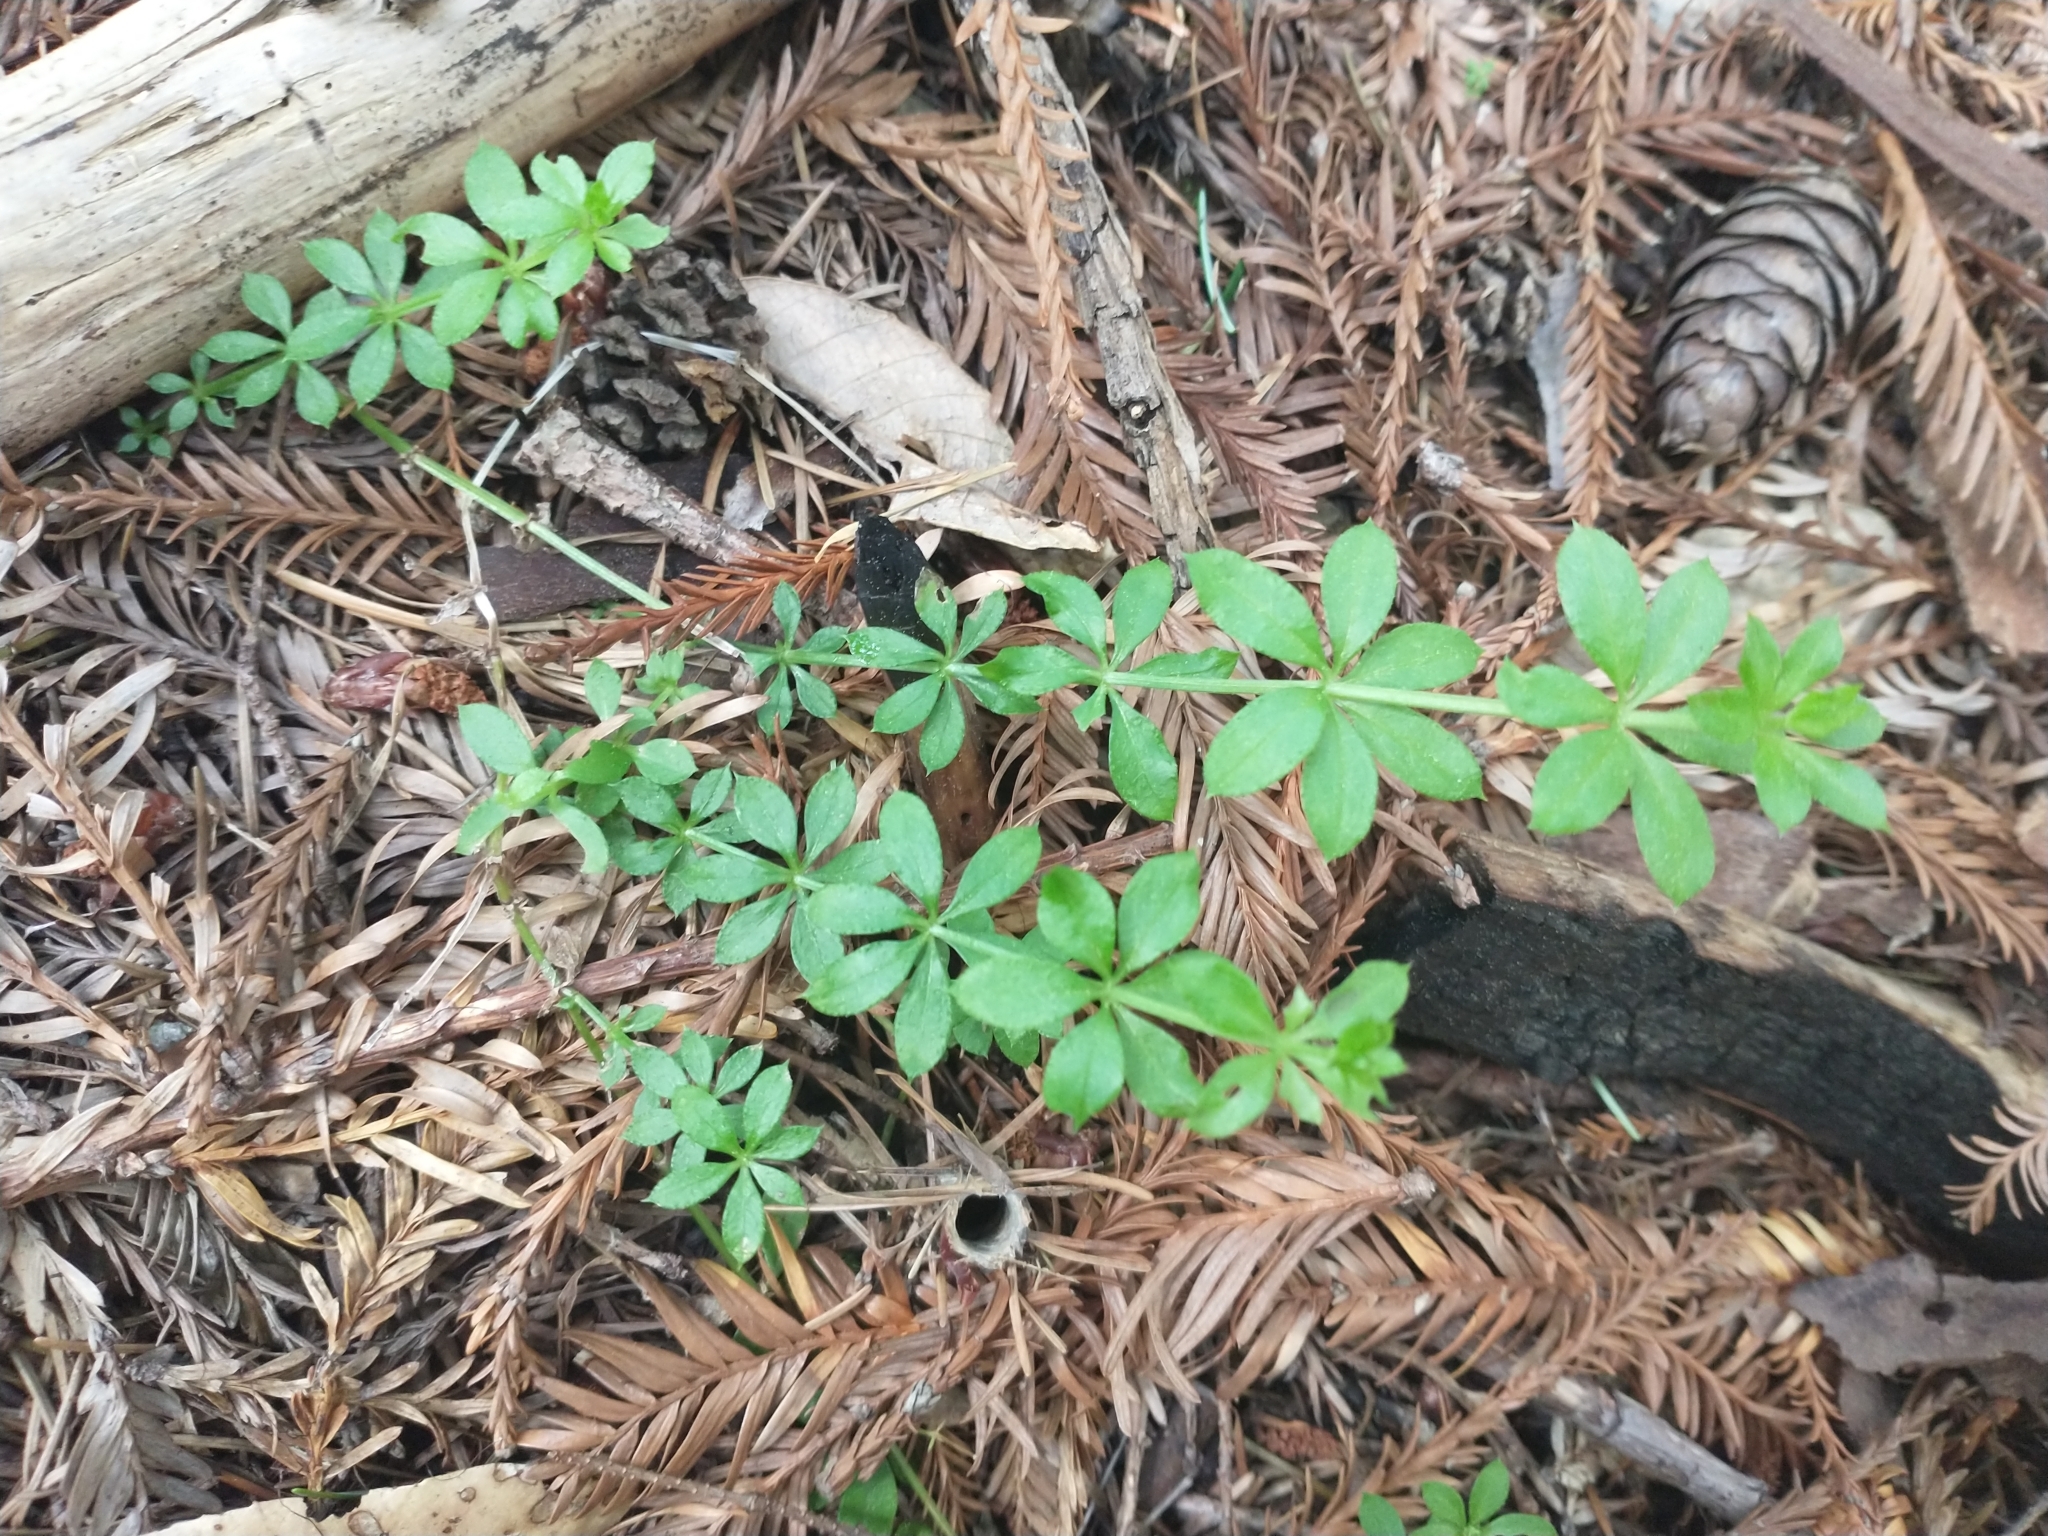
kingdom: Plantae
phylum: Tracheophyta
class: Magnoliopsida
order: Gentianales
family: Rubiaceae
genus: Galium
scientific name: Galium triflorum
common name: Fragrant bedstraw
